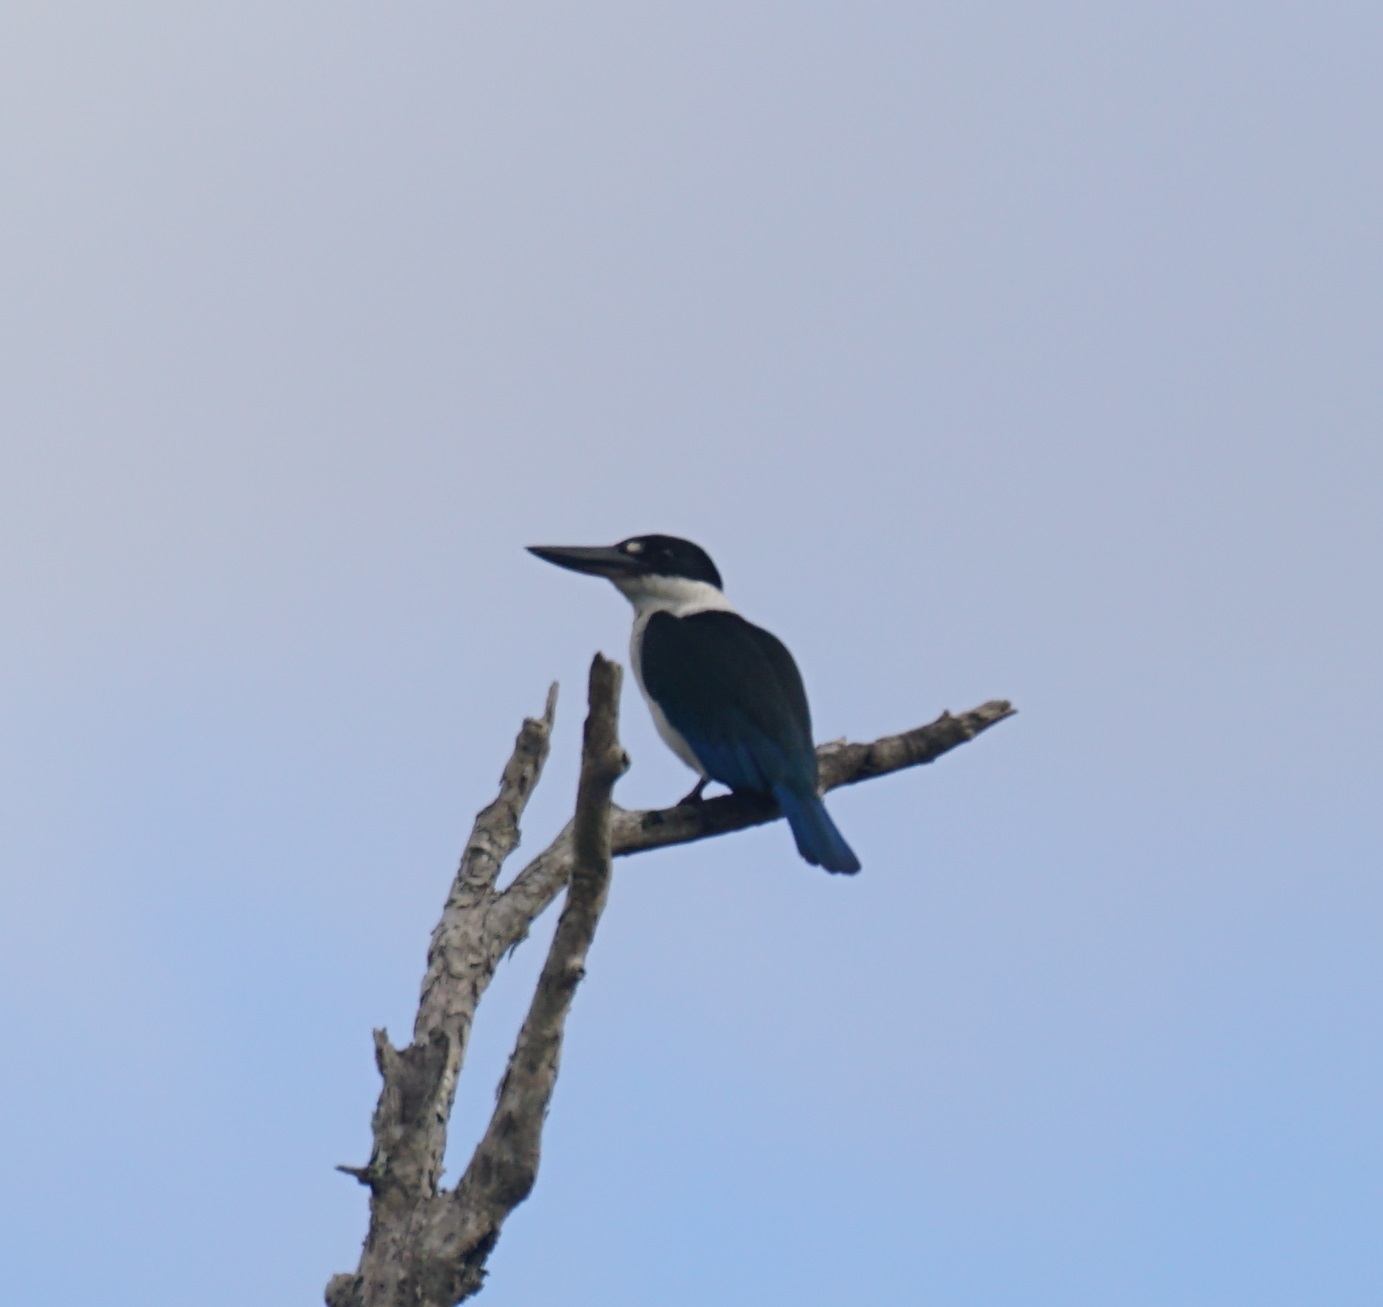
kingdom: Animalia
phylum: Chordata
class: Aves
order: Coraciiformes
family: Alcedinidae
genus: Todiramphus
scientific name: Todiramphus sordidus
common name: Torresian kingfisher
